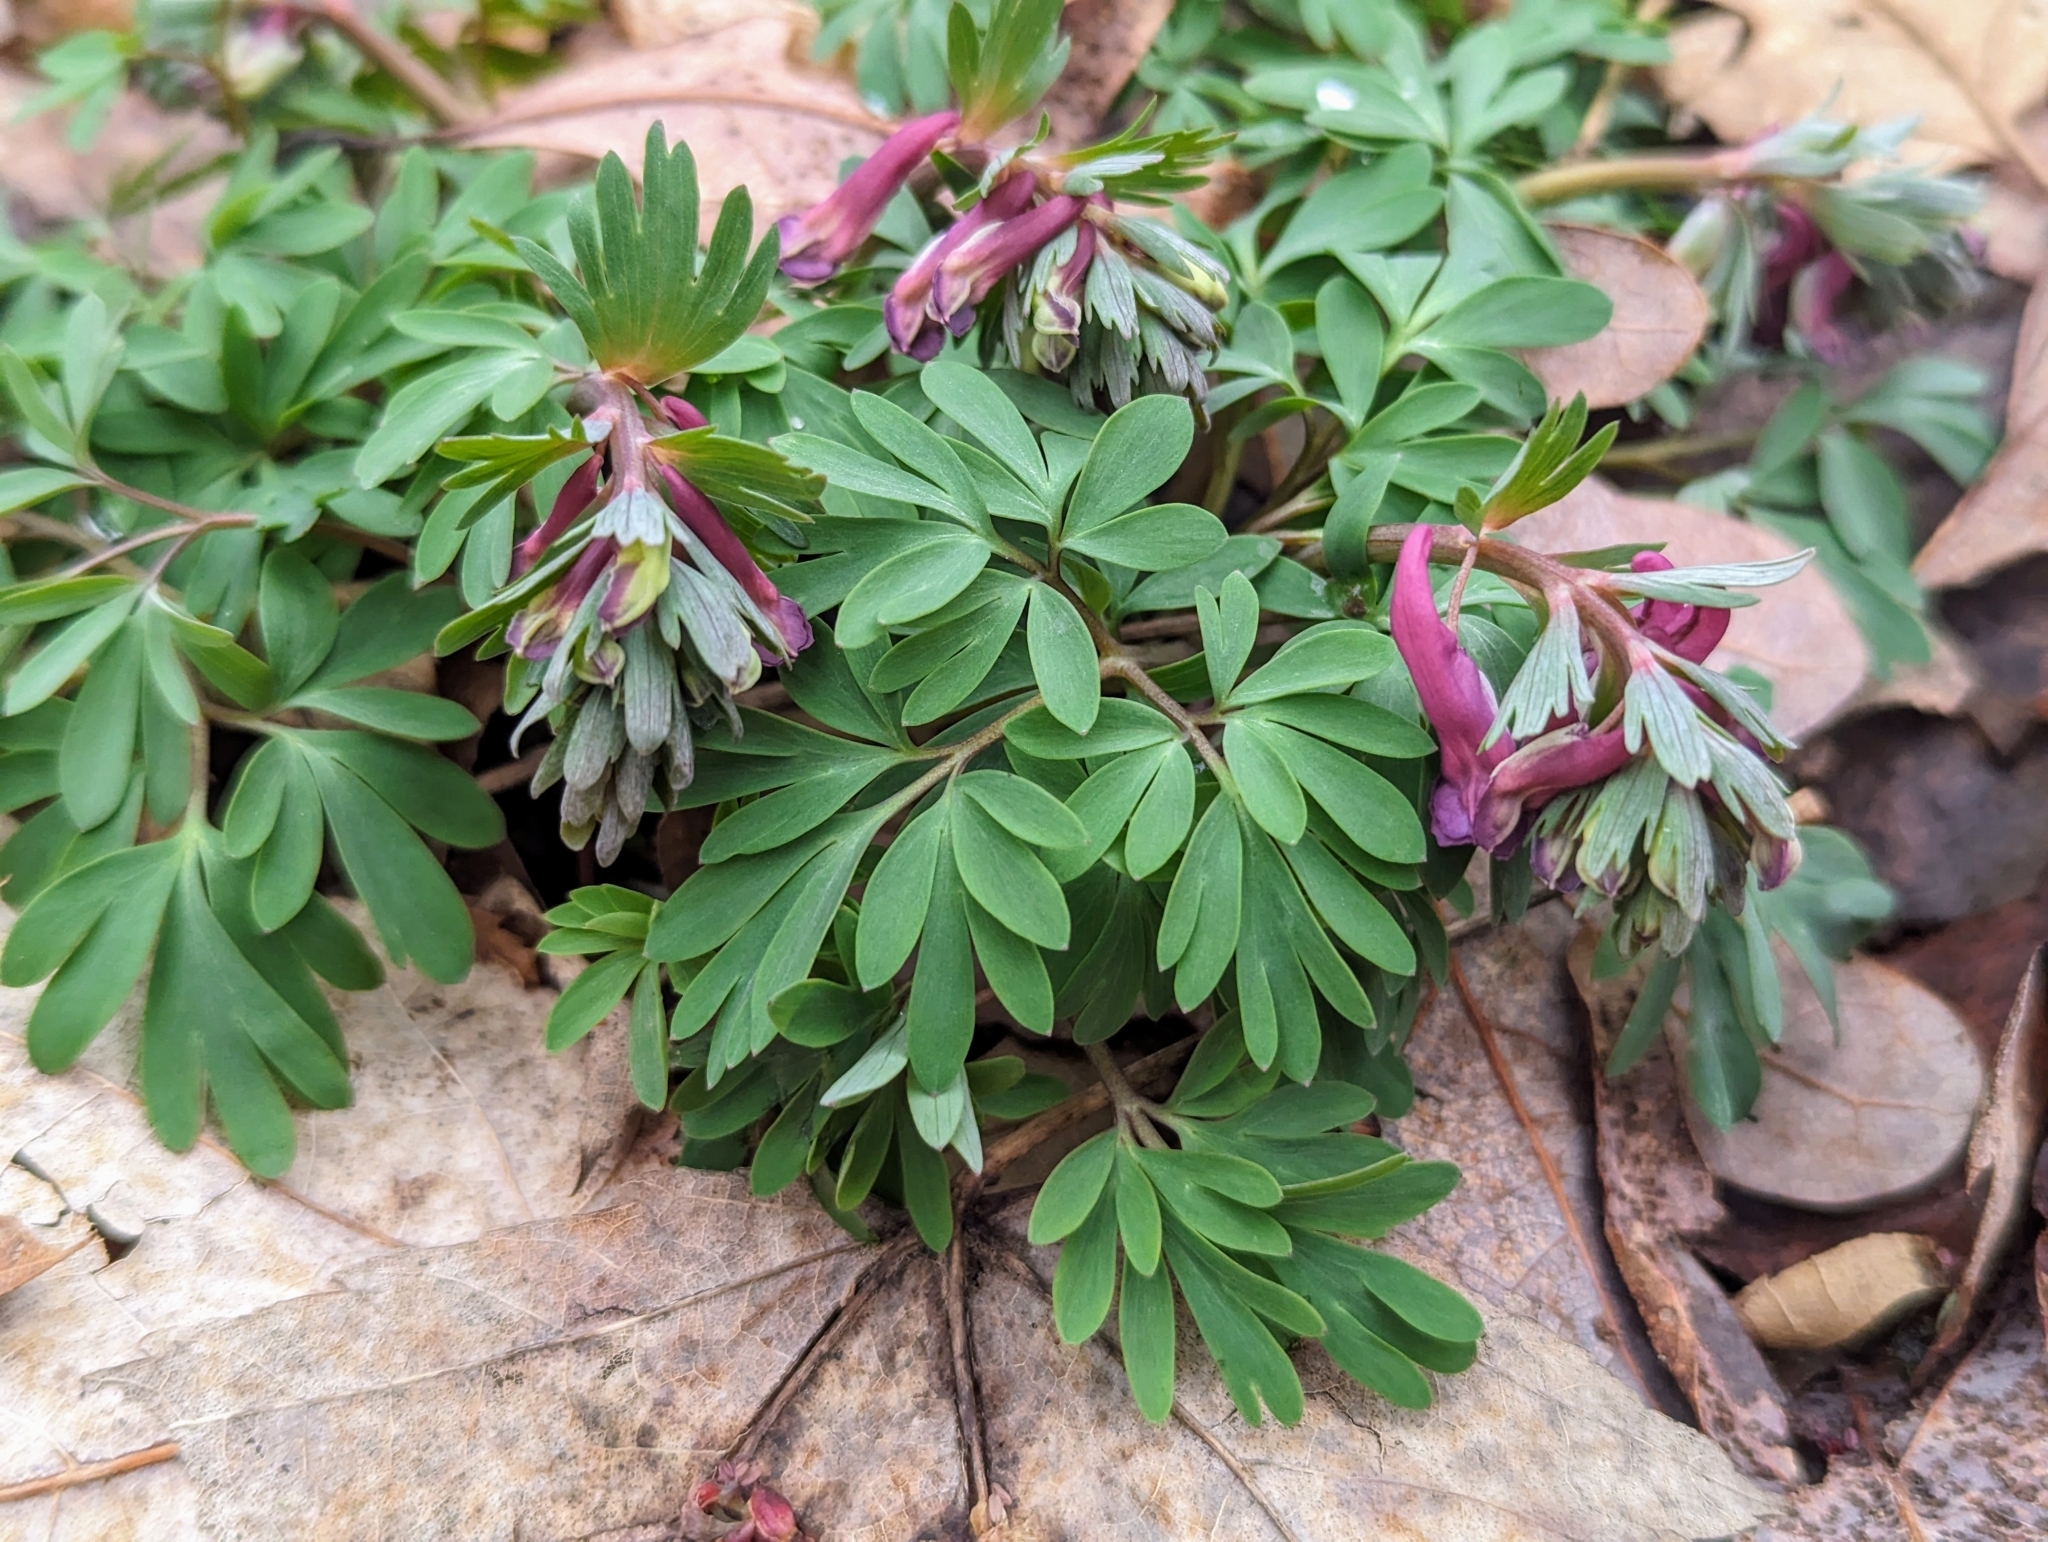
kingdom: Plantae
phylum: Tracheophyta
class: Magnoliopsida
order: Ranunculales
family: Papaveraceae
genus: Corydalis
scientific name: Corydalis solida
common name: Bird-in-a-bush
